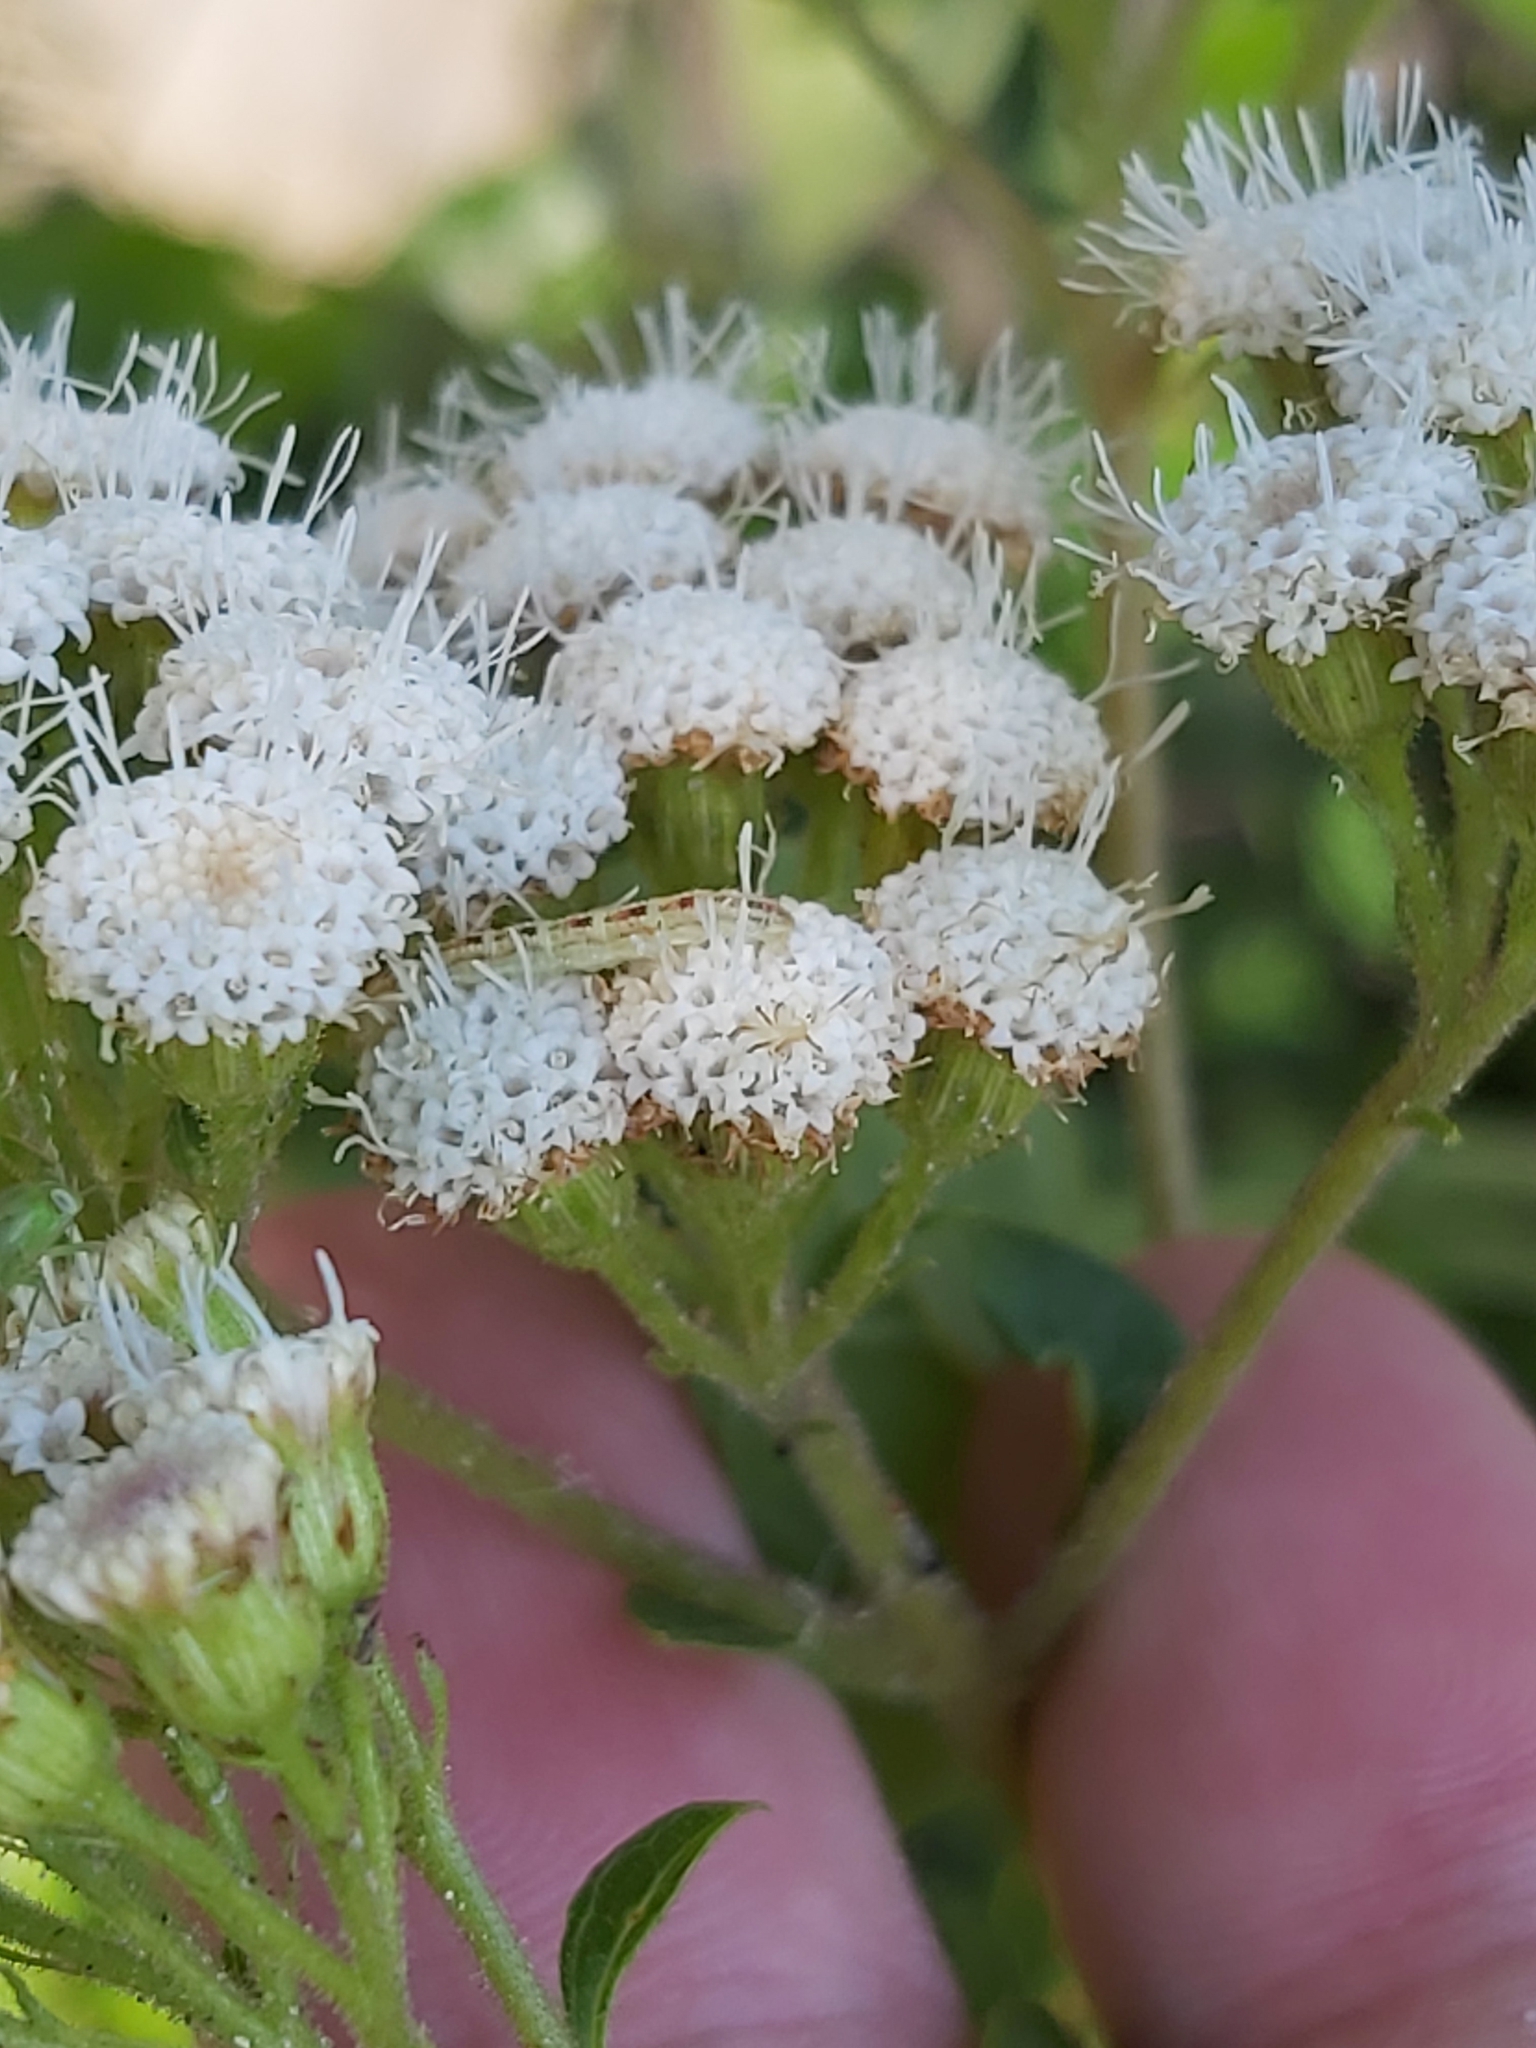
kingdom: Plantae
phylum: Tracheophyta
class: Magnoliopsida
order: Asterales
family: Asteraceae
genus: Ageratina
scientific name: Ageratina adenophora
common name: Sticky snakeroot
